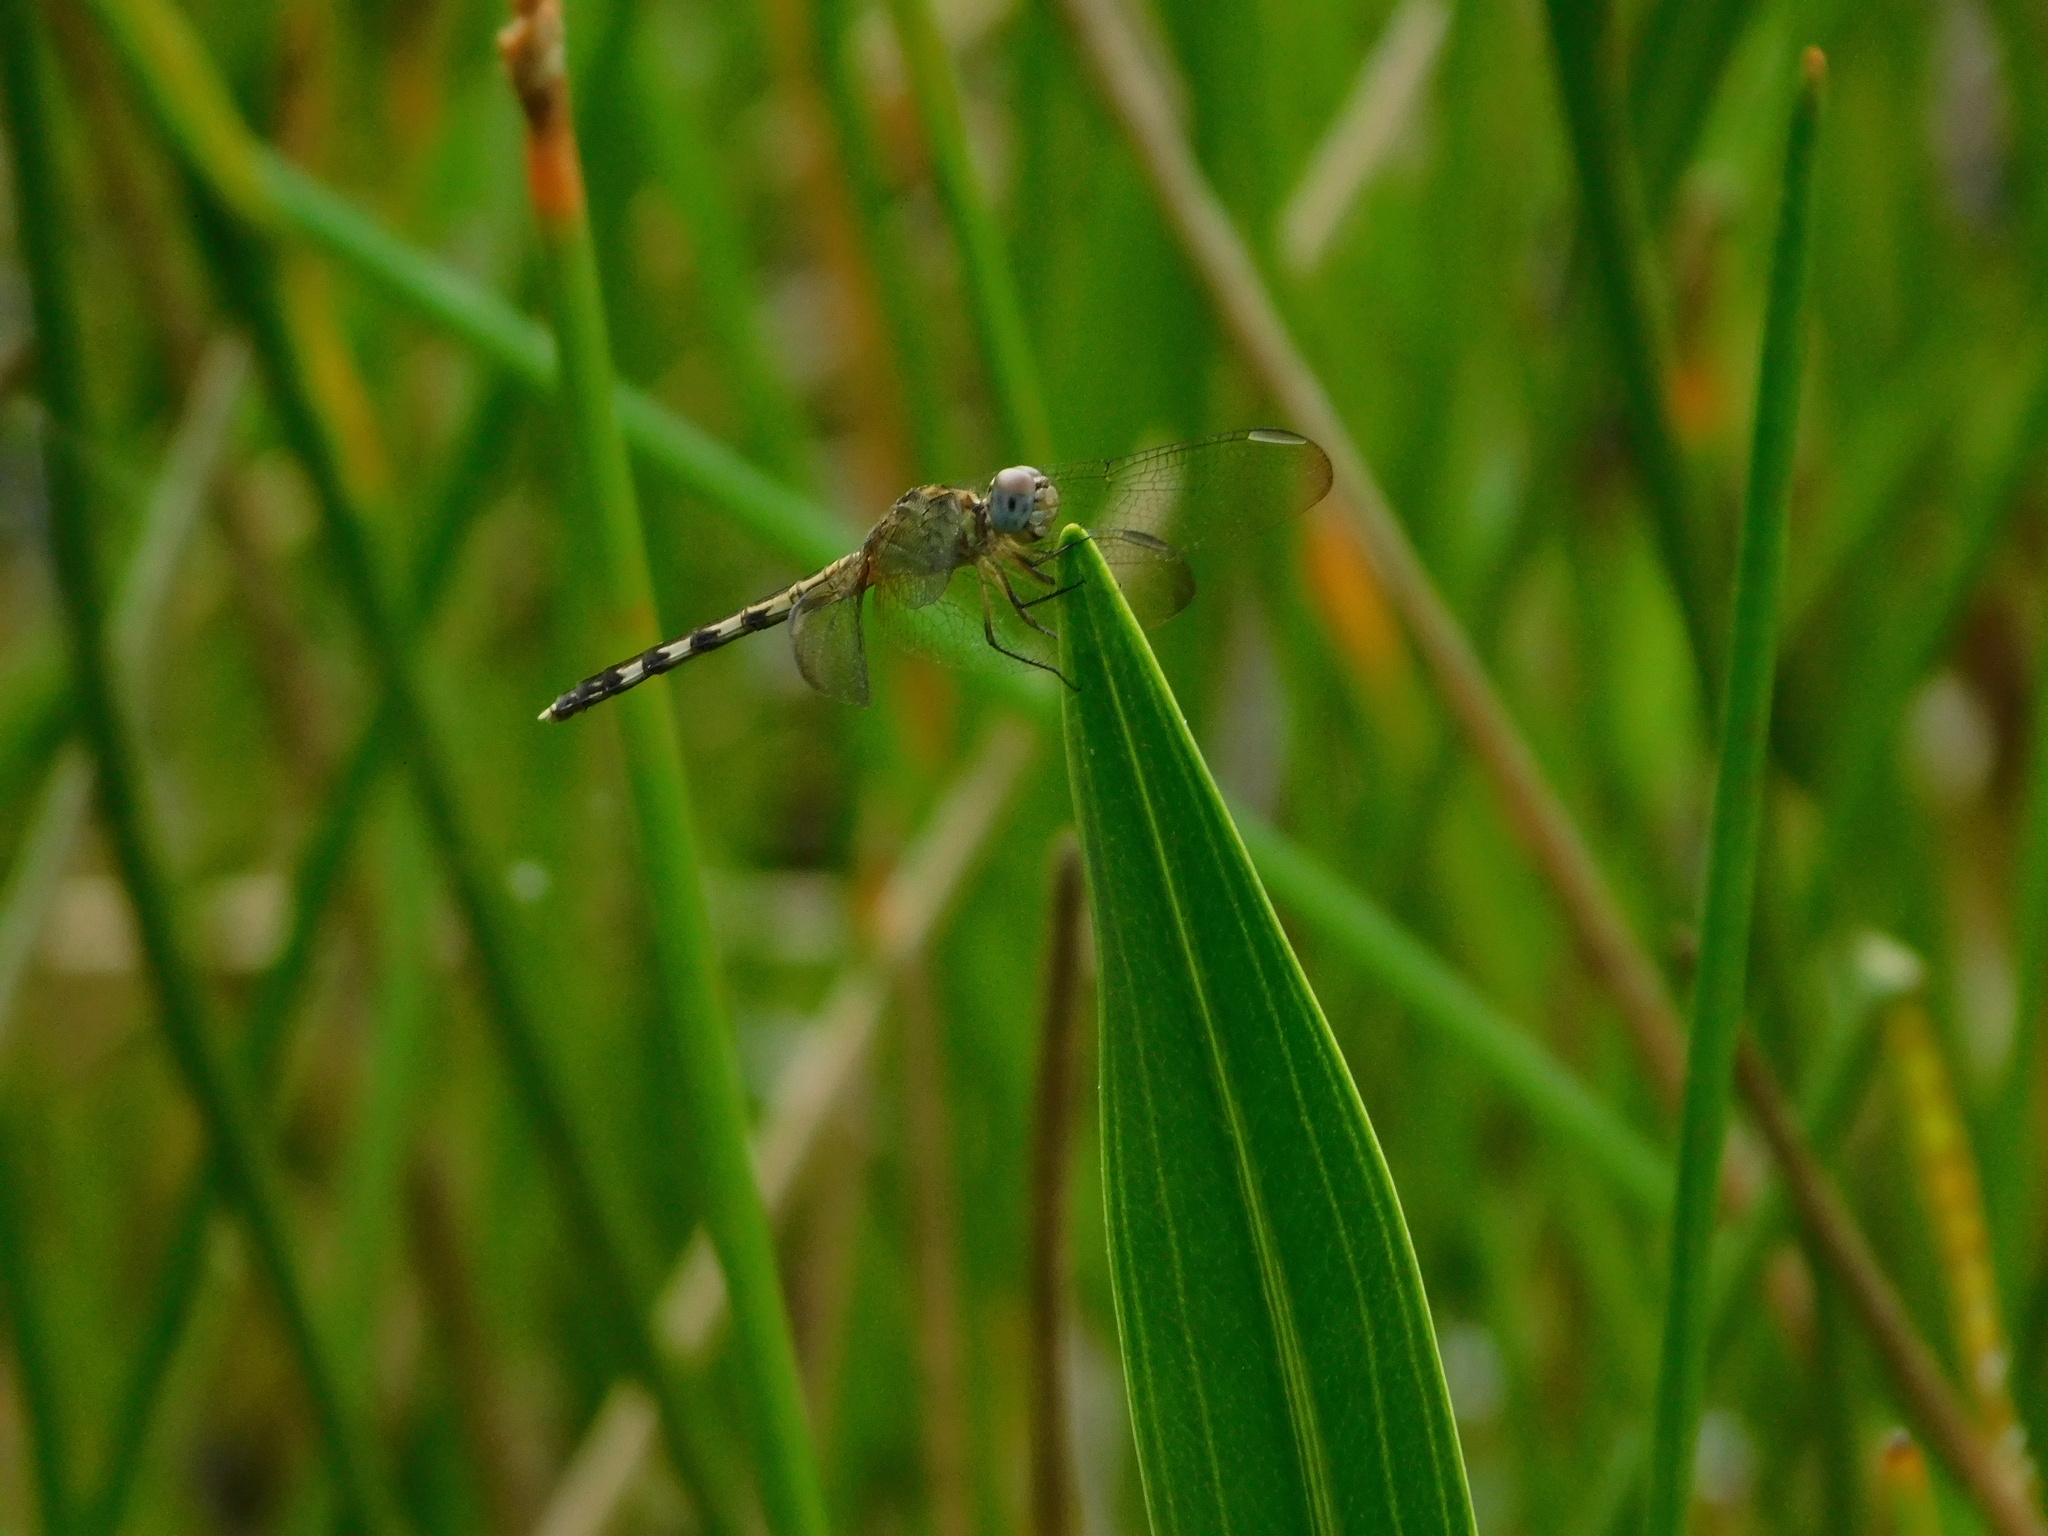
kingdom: Animalia
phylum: Arthropoda
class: Insecta
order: Odonata
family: Libellulidae
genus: Erythrodiplax
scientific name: Erythrodiplax umbrata
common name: Band-winged dragonlet
